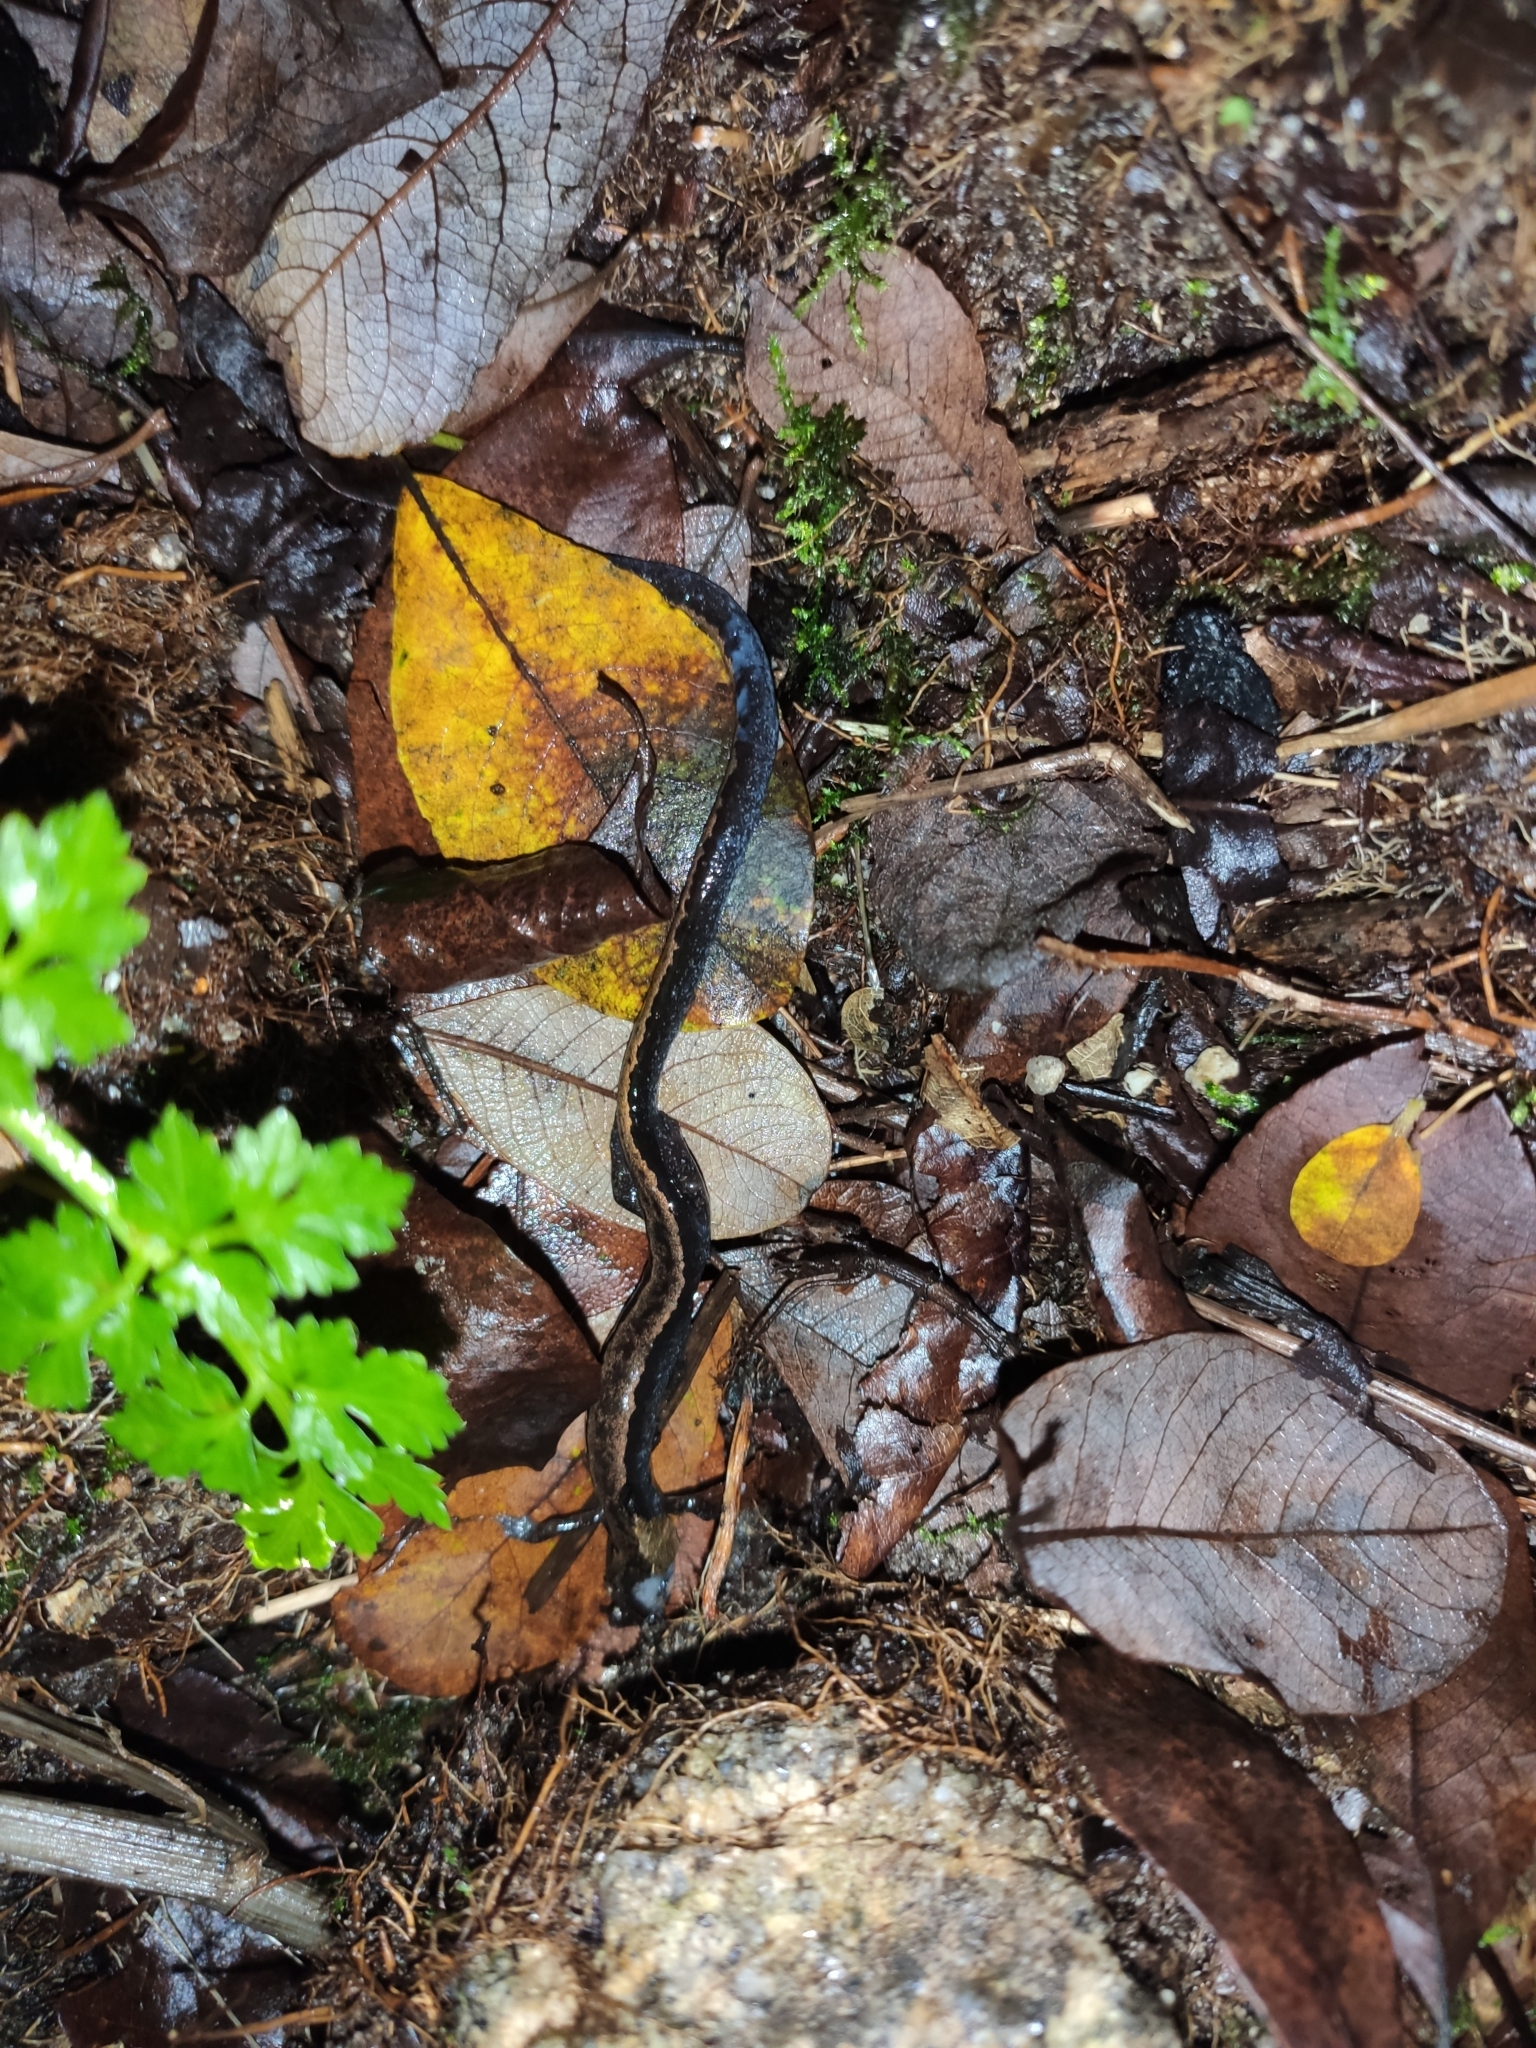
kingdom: Animalia
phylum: Chordata
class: Amphibia
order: Caudata
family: Salamandridae
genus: Chioglossa
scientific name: Chioglossa lusitanica
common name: Gold-striped salamander
